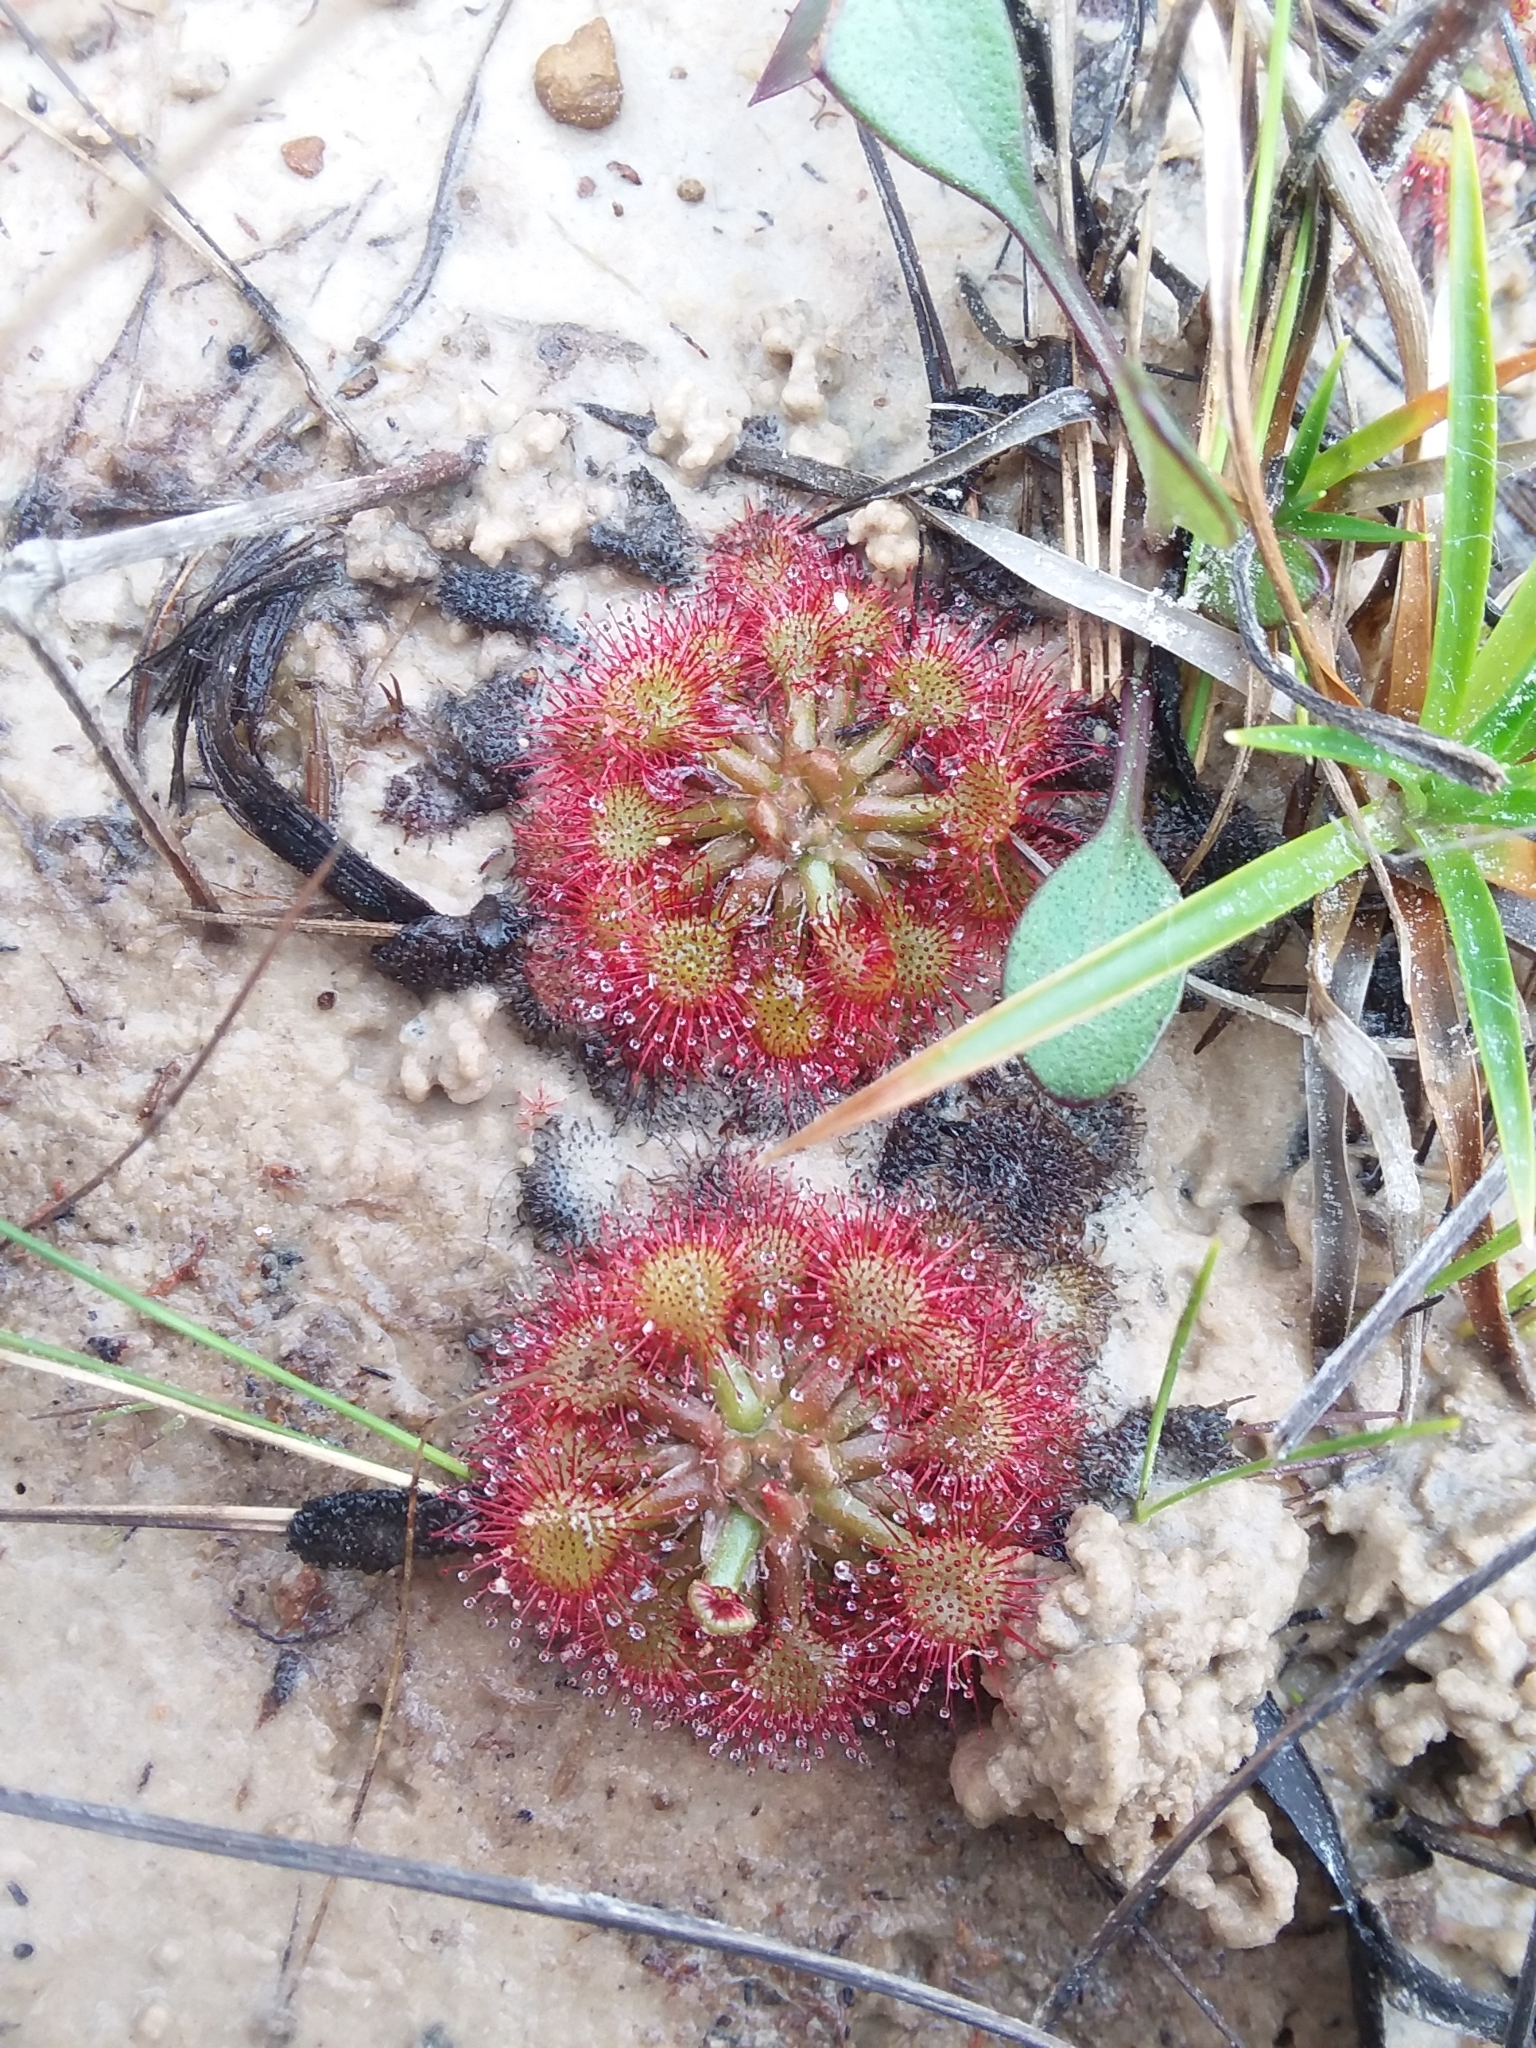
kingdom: Plantae
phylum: Tracheophyta
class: Magnoliopsida
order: Caryophyllales
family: Droseraceae
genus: Drosera
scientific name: Drosera capillaris
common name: Pink sundew
